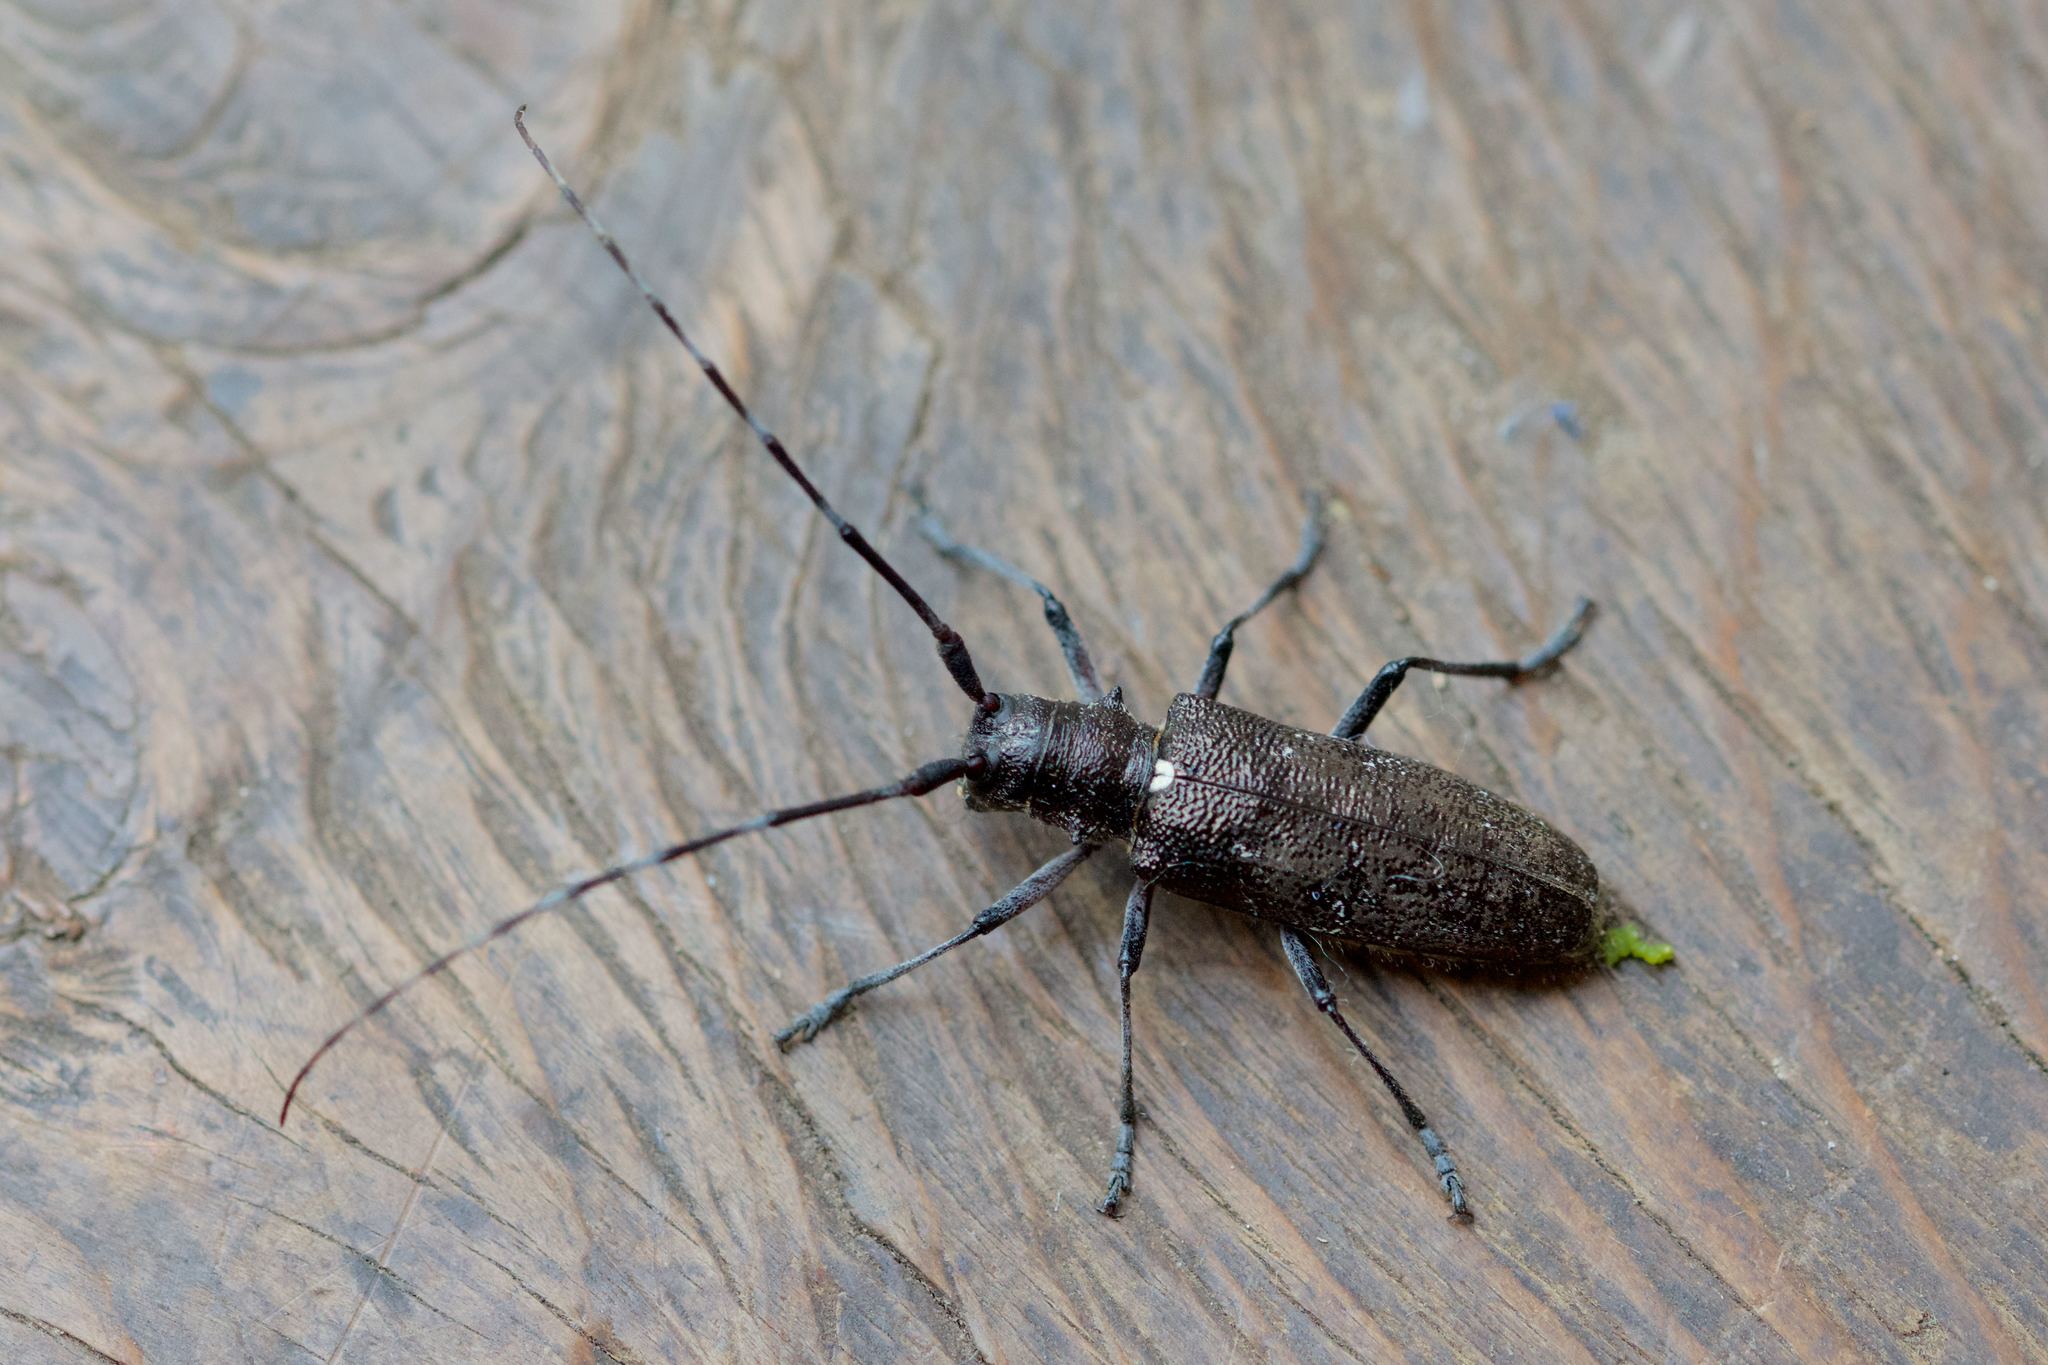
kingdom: Animalia
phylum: Arthropoda
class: Insecta
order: Coleoptera
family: Cerambycidae
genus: Monochamus
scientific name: Monochamus scutellatus
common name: White-spotted sawyer beetle
